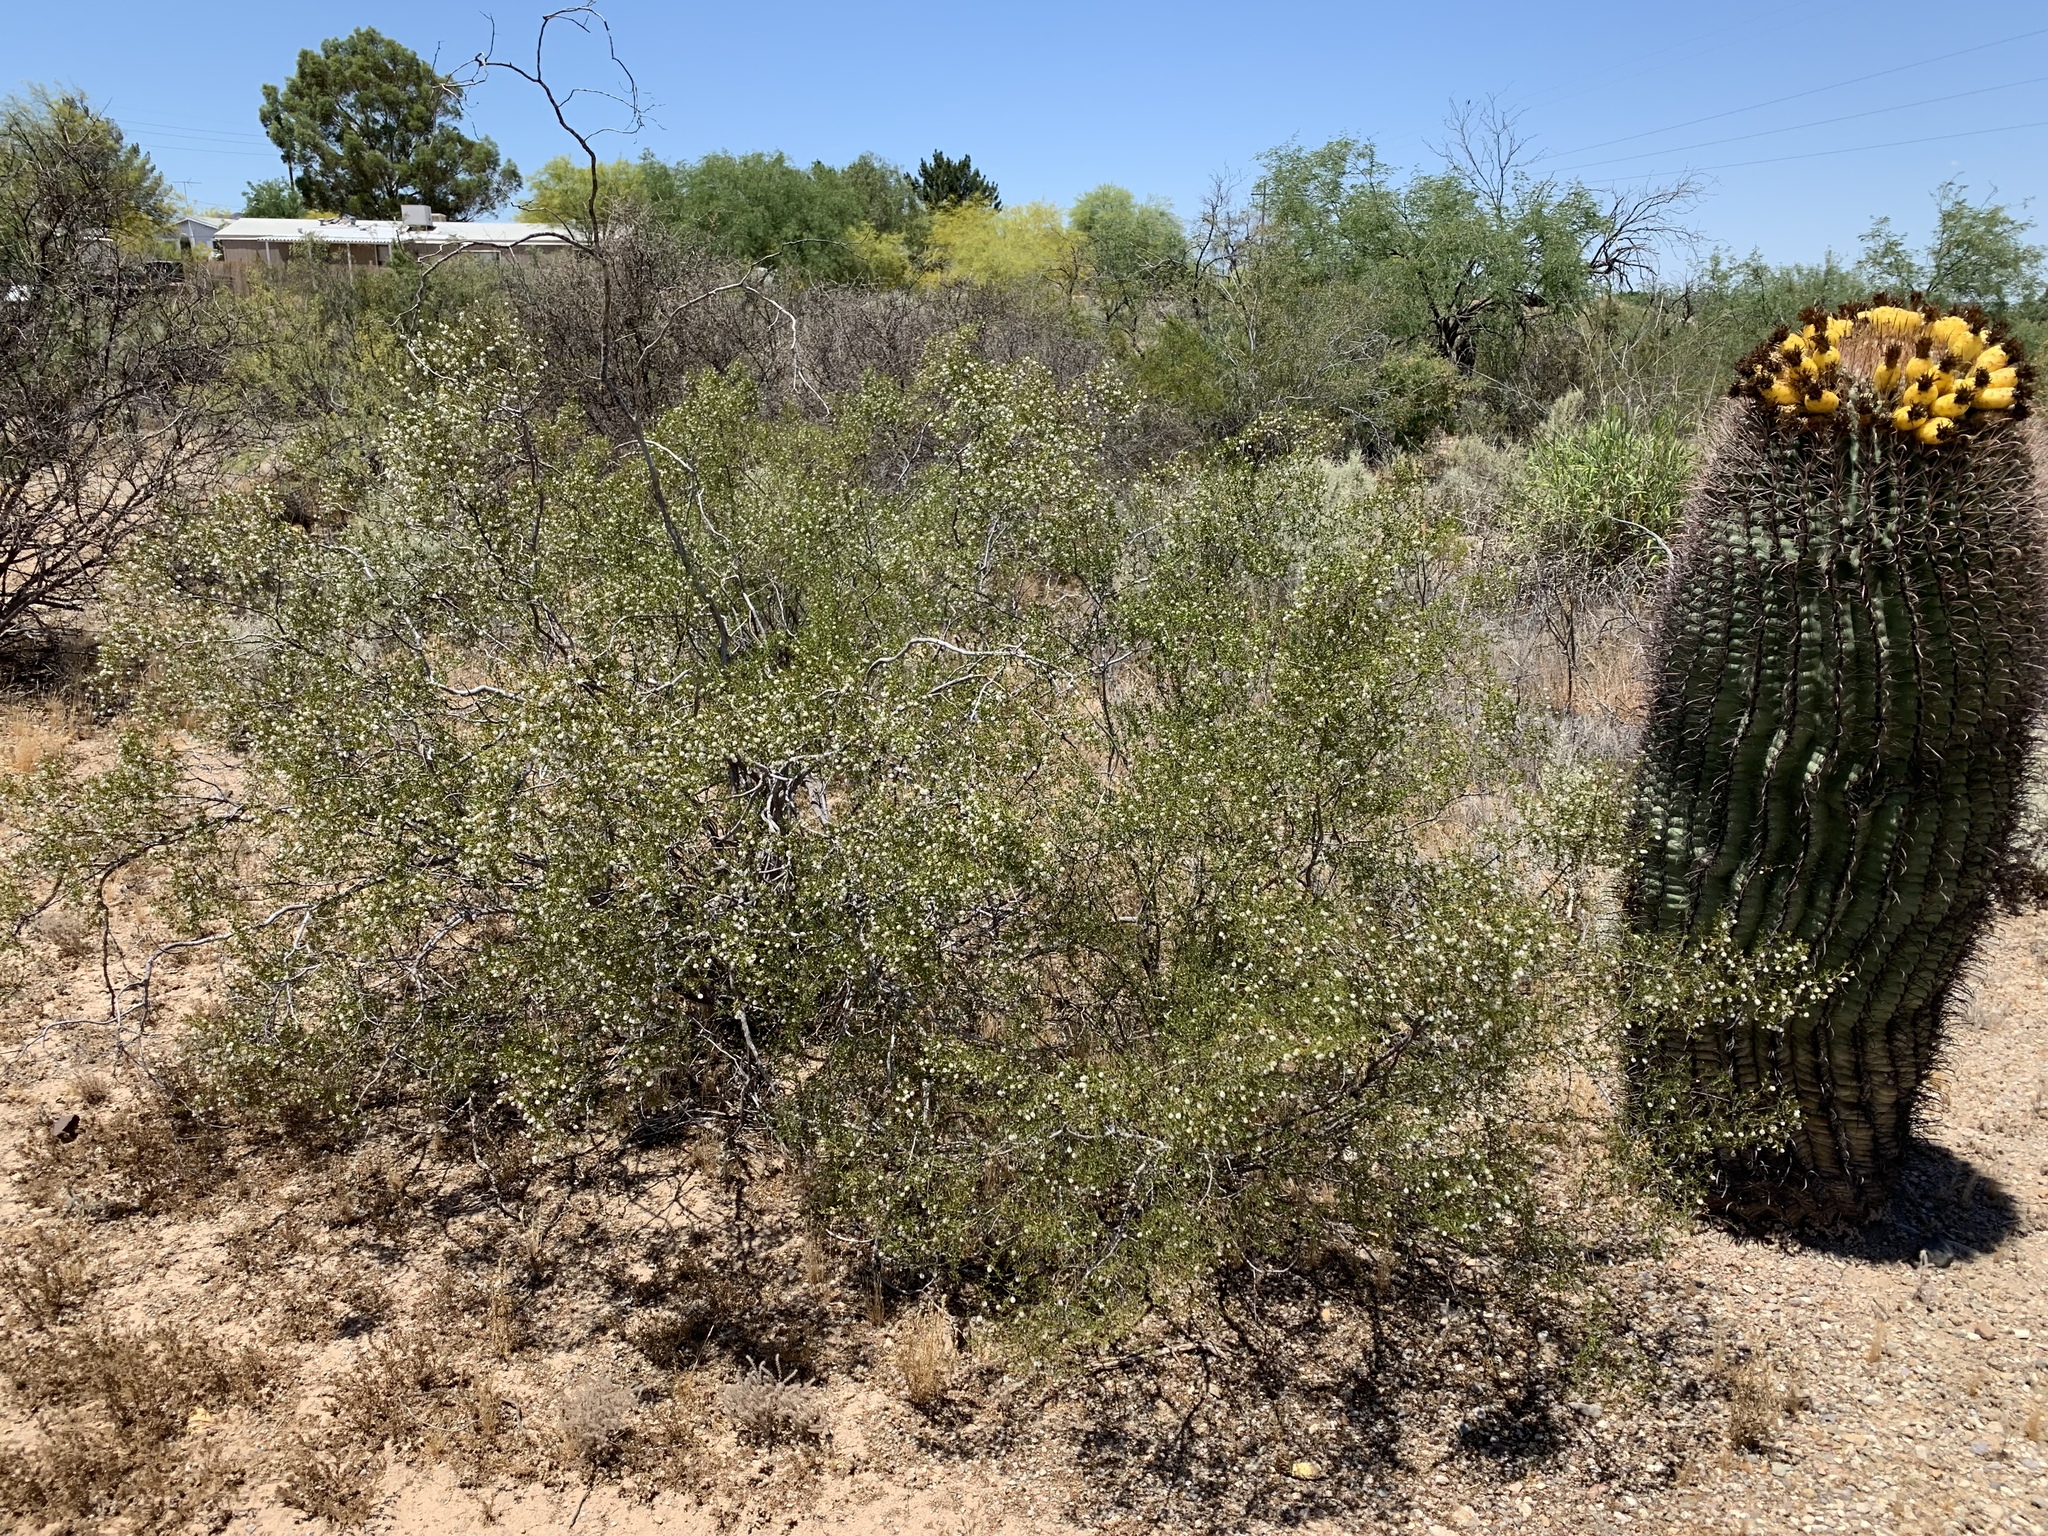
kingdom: Plantae
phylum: Tracheophyta
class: Magnoliopsida
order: Zygophyllales
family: Zygophyllaceae
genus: Larrea
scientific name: Larrea tridentata
